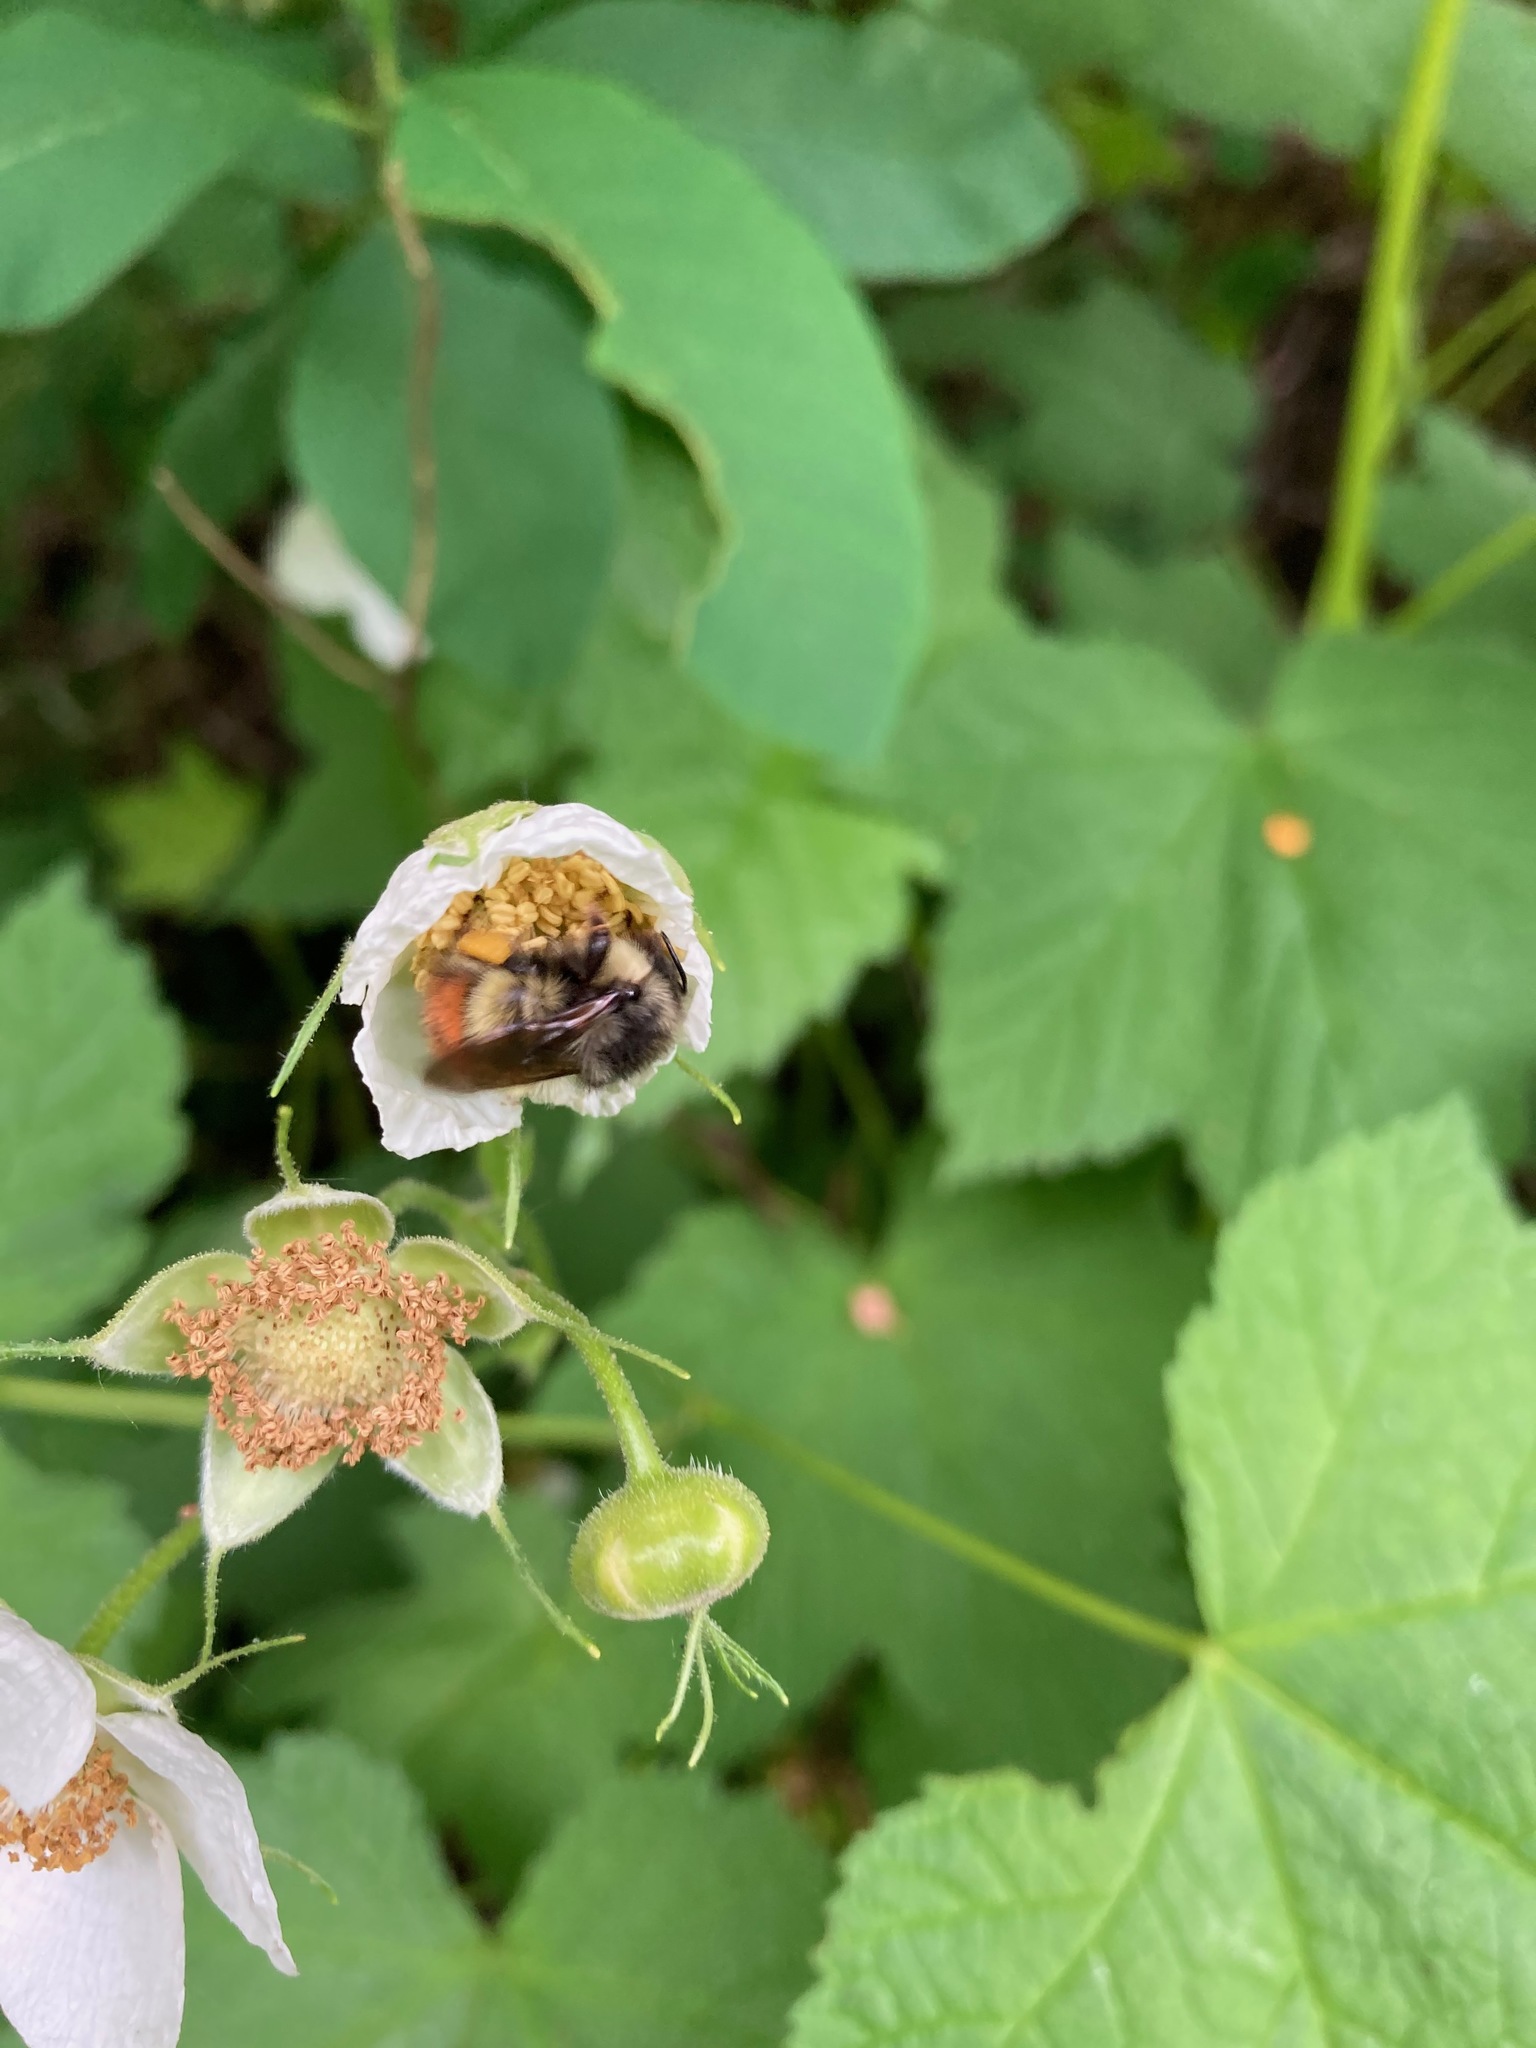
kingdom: Animalia
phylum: Arthropoda
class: Insecta
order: Hymenoptera
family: Apidae
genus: Bombus
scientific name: Bombus flavifrons
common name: Yellow head bumble bee
